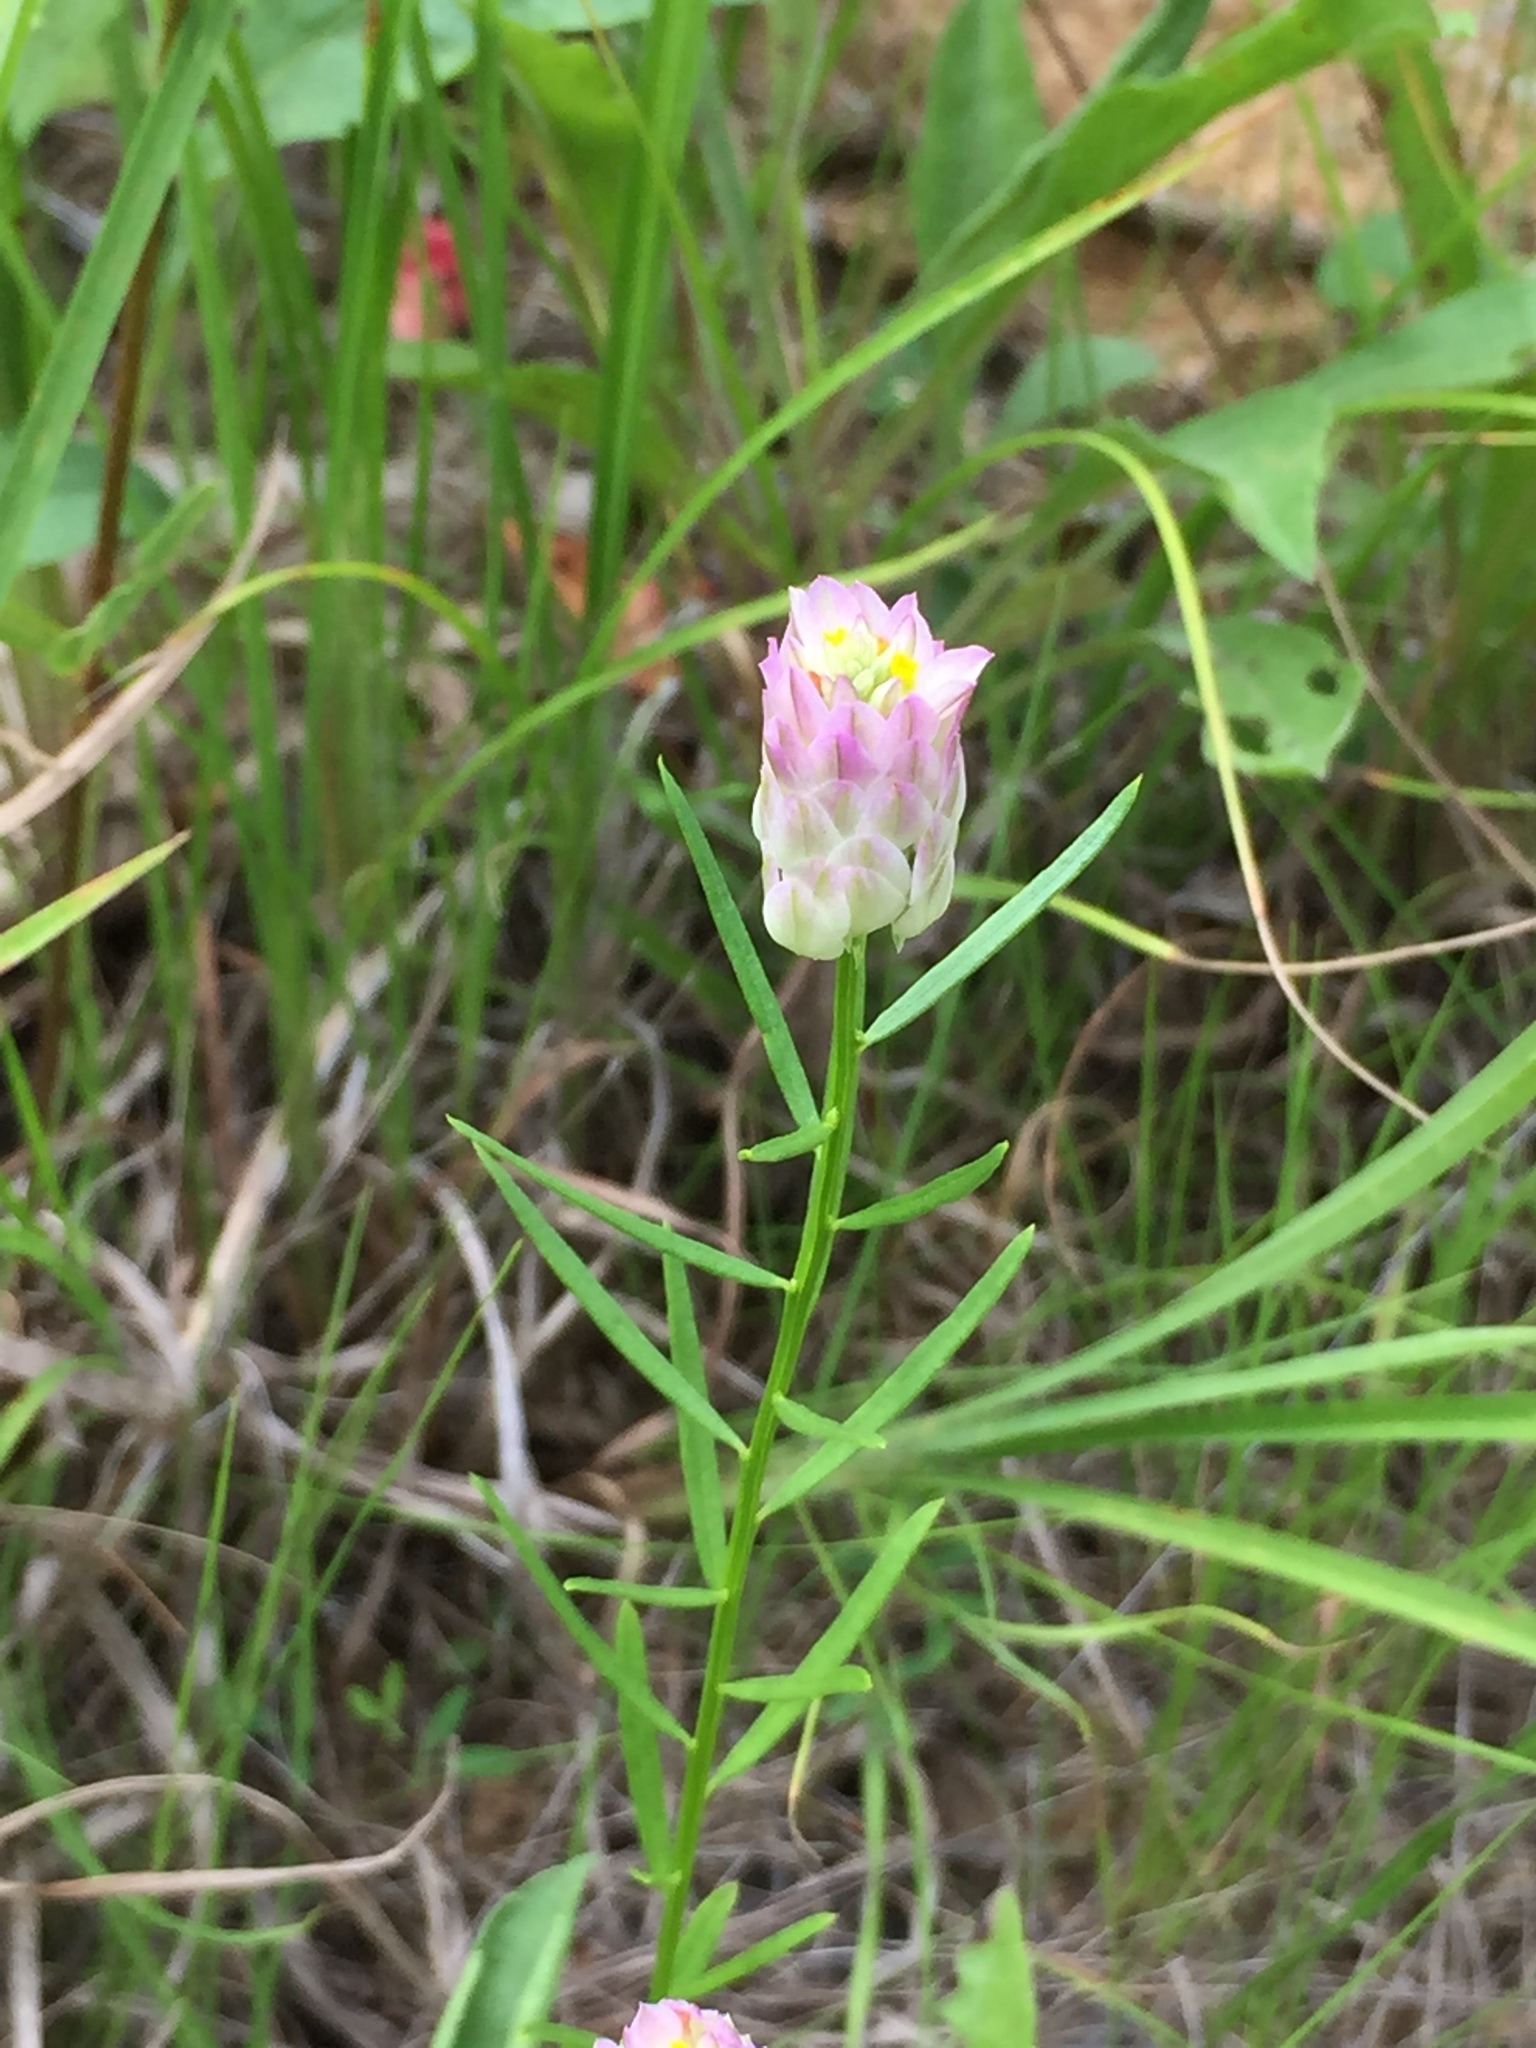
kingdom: Plantae
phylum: Tracheophyta
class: Magnoliopsida
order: Fabales
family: Polygalaceae
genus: Polygala
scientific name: Polygala sanguinea
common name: Blood milkwort
